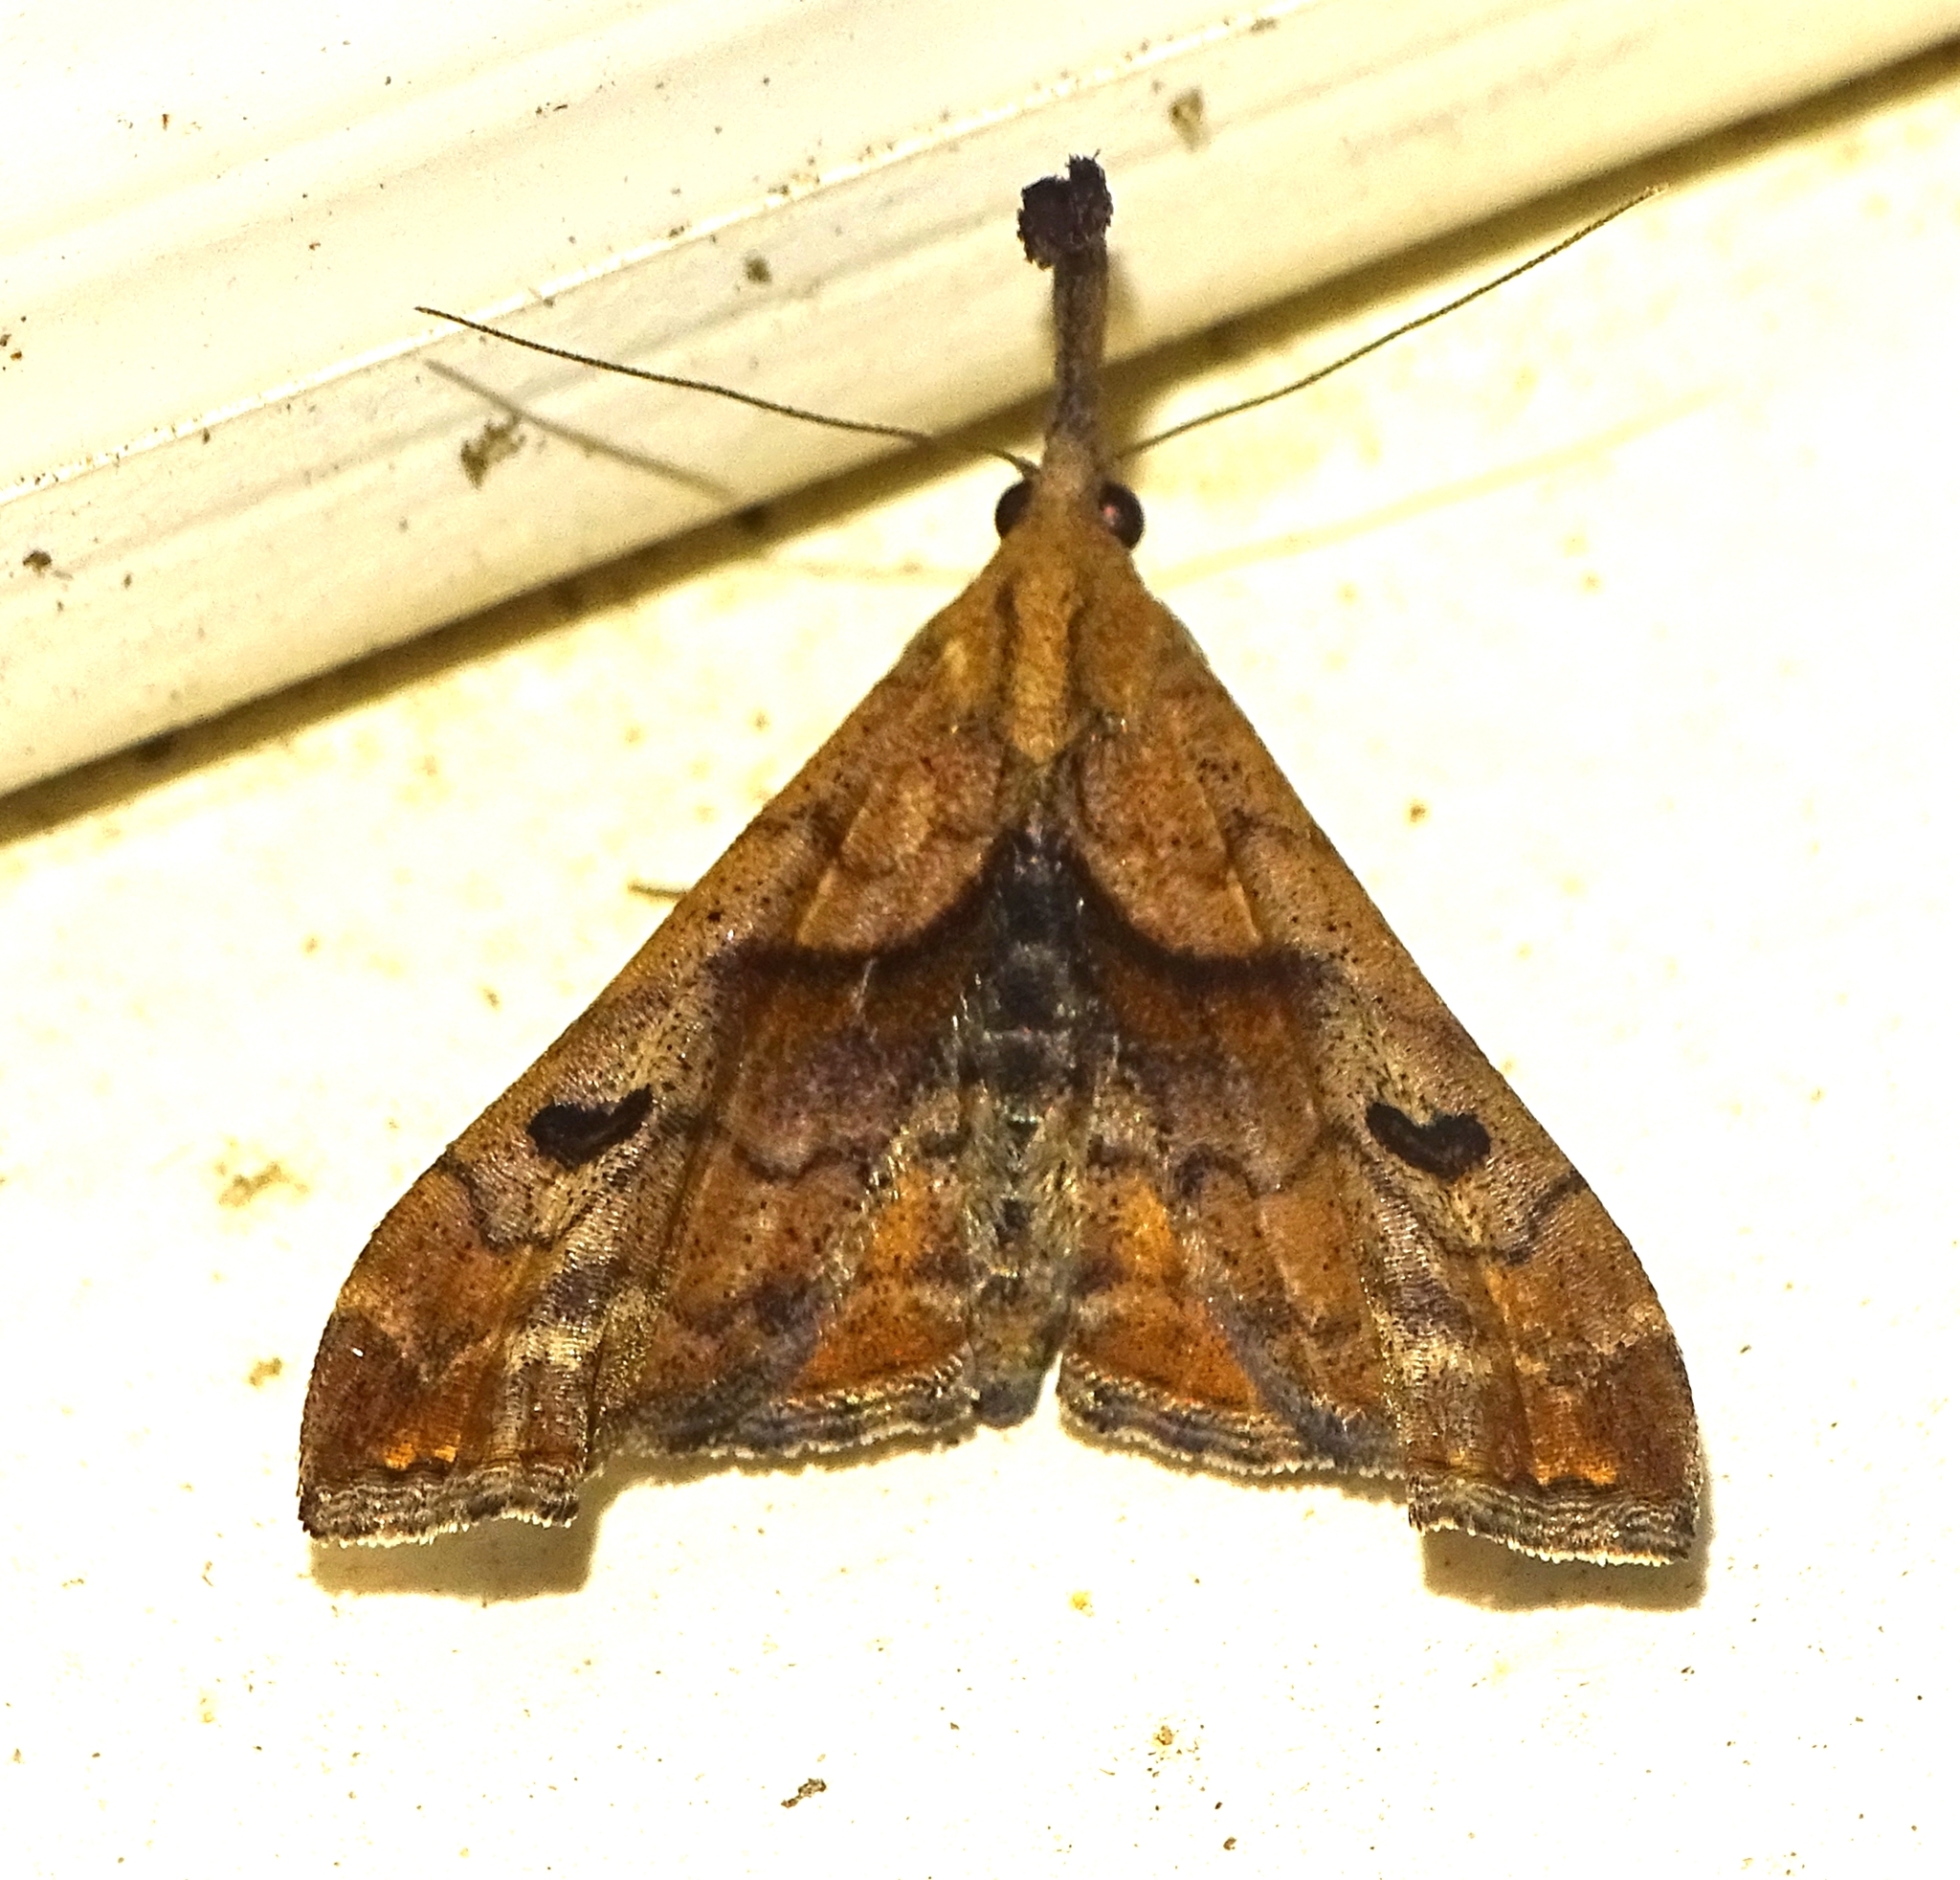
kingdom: Animalia
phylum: Arthropoda
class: Insecta
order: Lepidoptera
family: Erebidae
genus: Palthis
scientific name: Palthis angulalis
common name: Dark-spotted palthis moth
